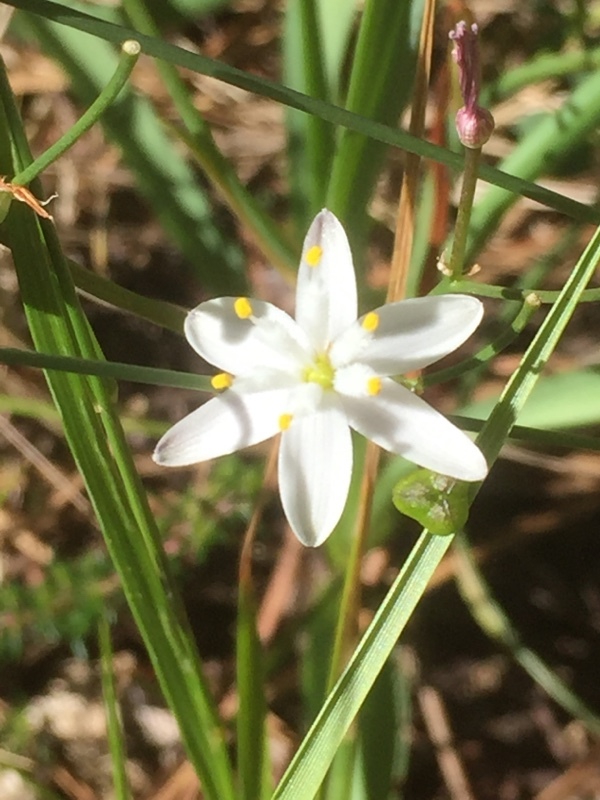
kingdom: Plantae
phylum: Tracheophyta
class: Liliopsida
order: Asparagales
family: Asphodelaceae
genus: Simethis
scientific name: Simethis mattiazzii
